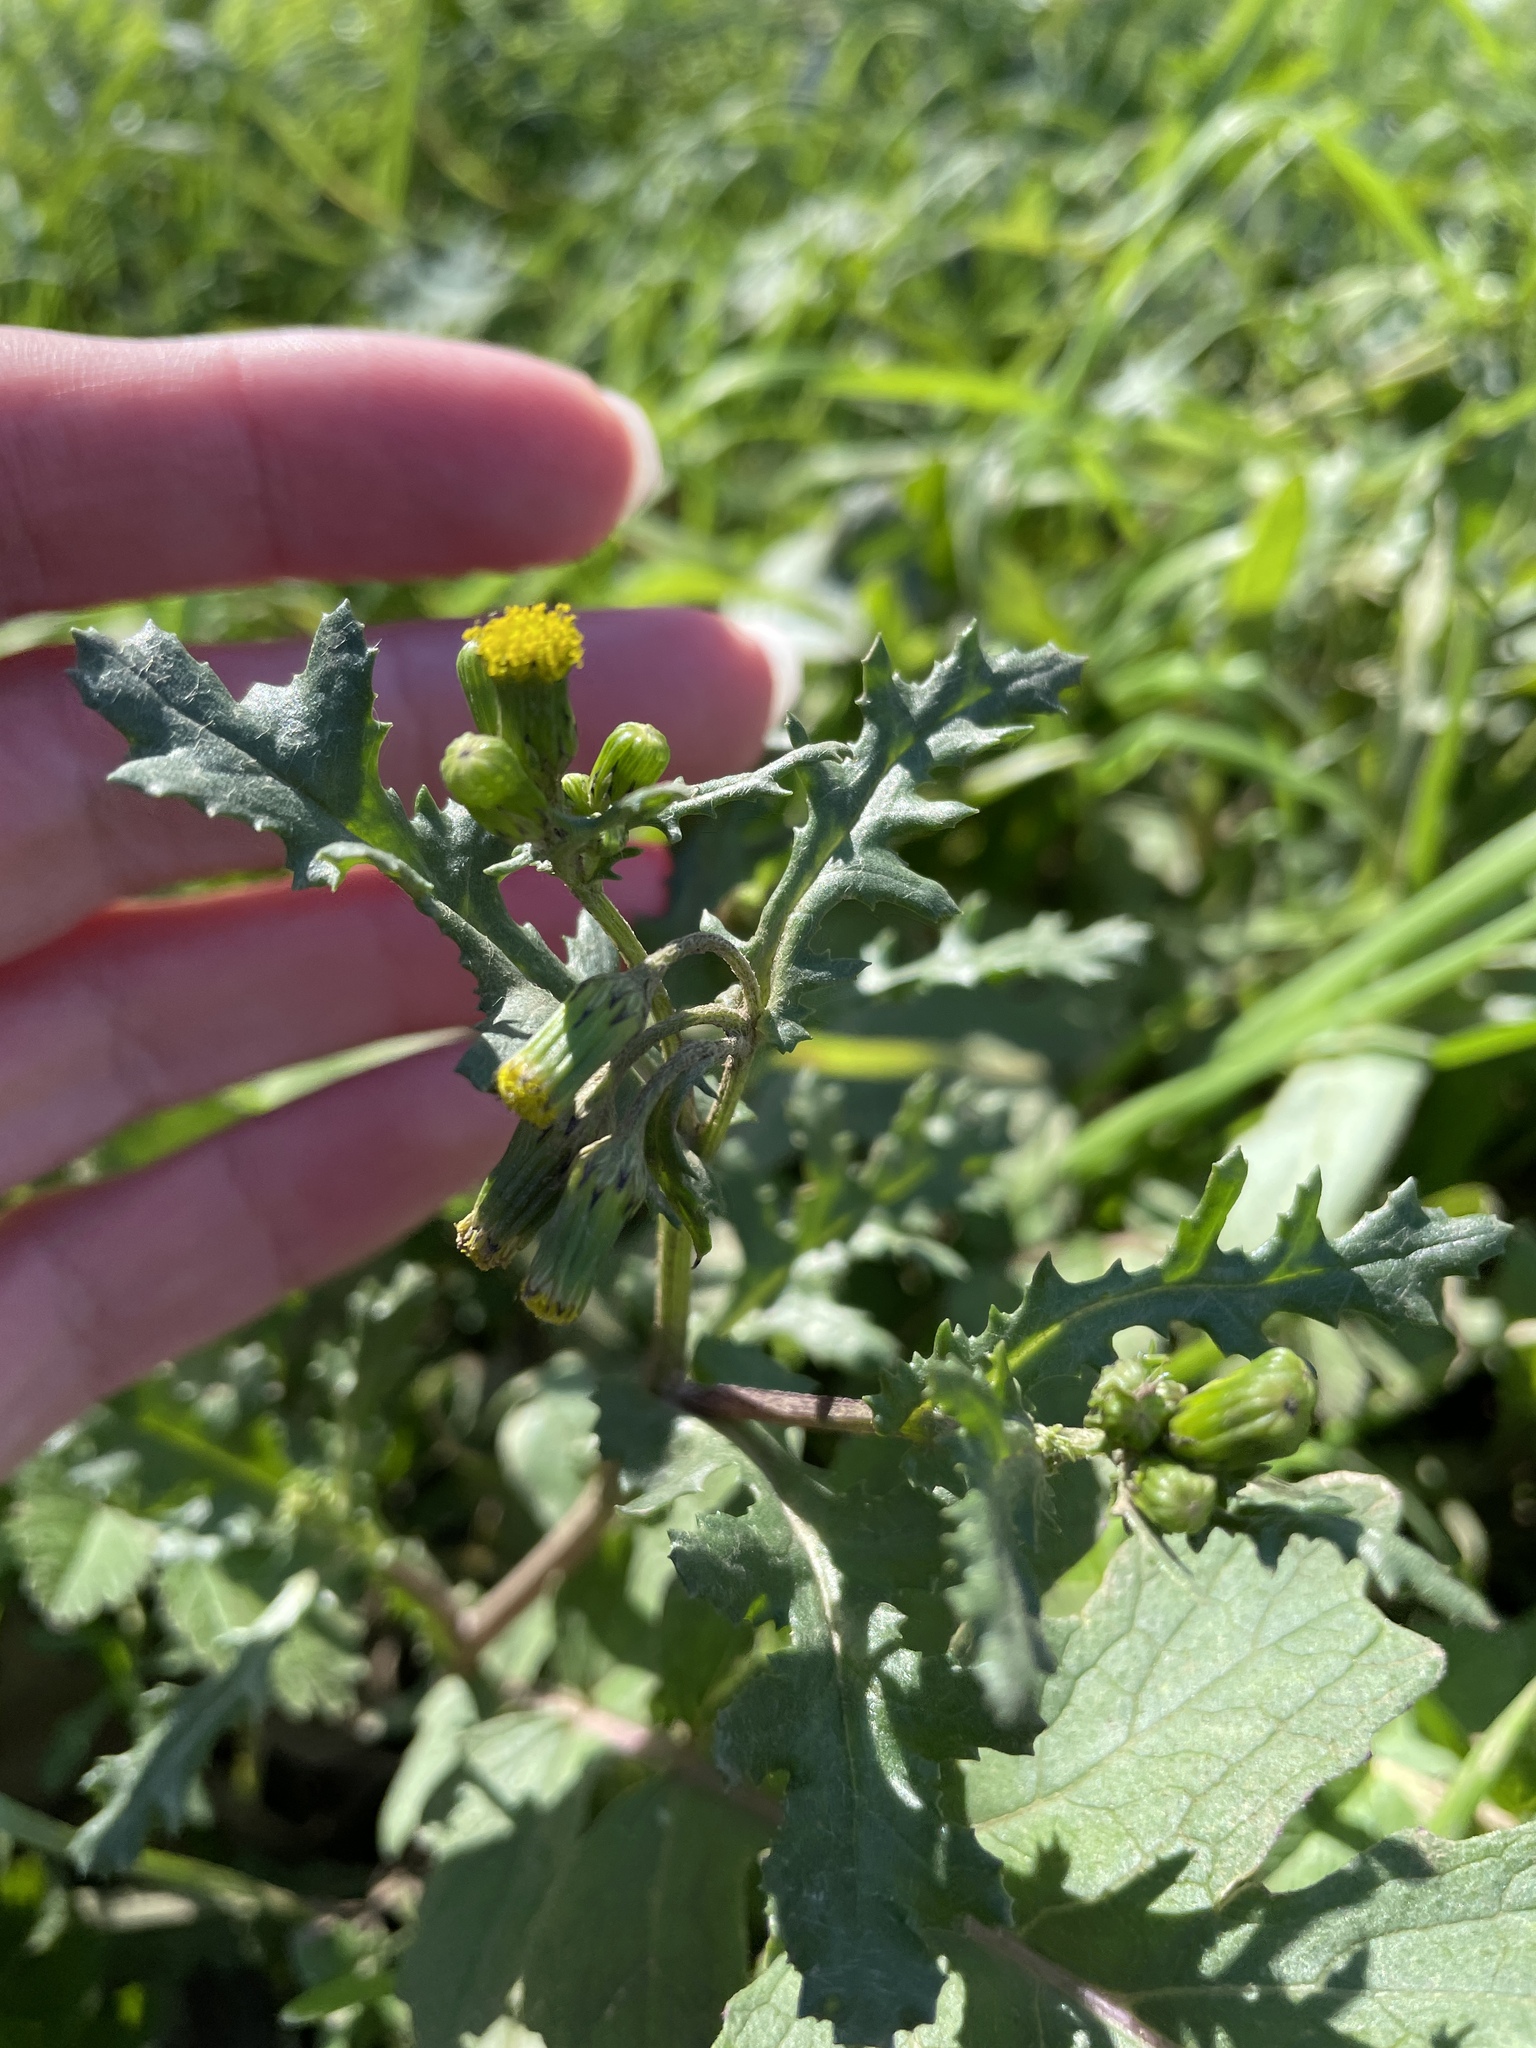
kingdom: Plantae
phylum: Tracheophyta
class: Magnoliopsida
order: Asterales
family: Asteraceae
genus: Senecio
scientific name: Senecio vulgaris
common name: Old-man-in-the-spring
